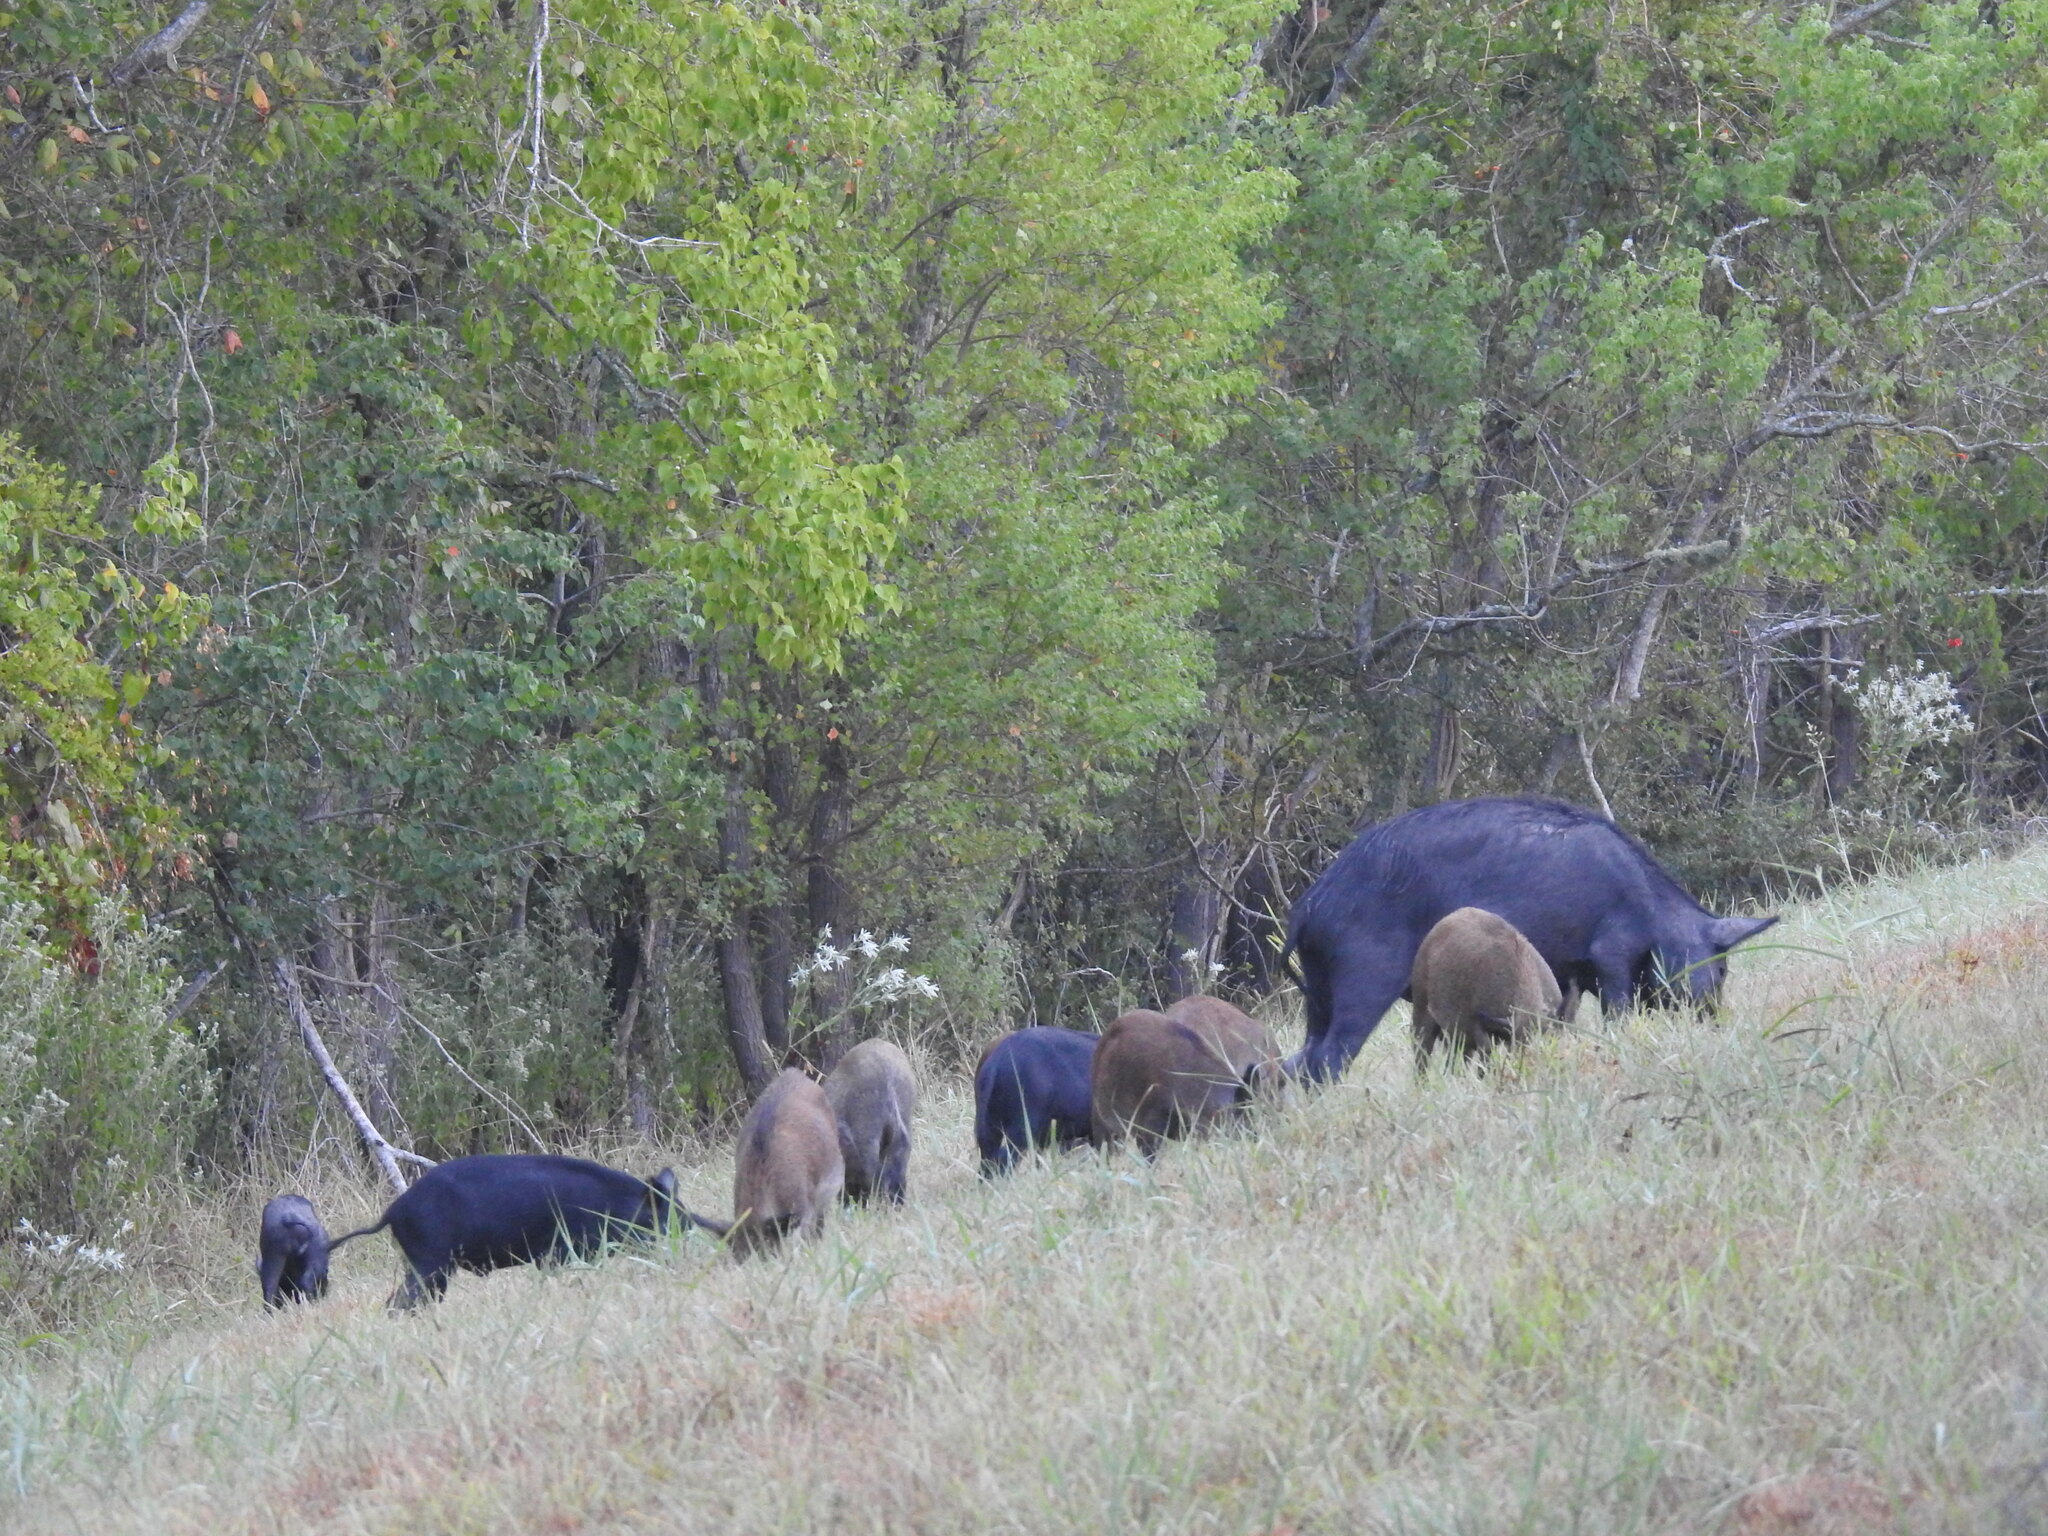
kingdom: Animalia
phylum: Chordata
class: Mammalia
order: Artiodactyla
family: Suidae
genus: Sus
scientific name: Sus scrofa
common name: Wild boar
